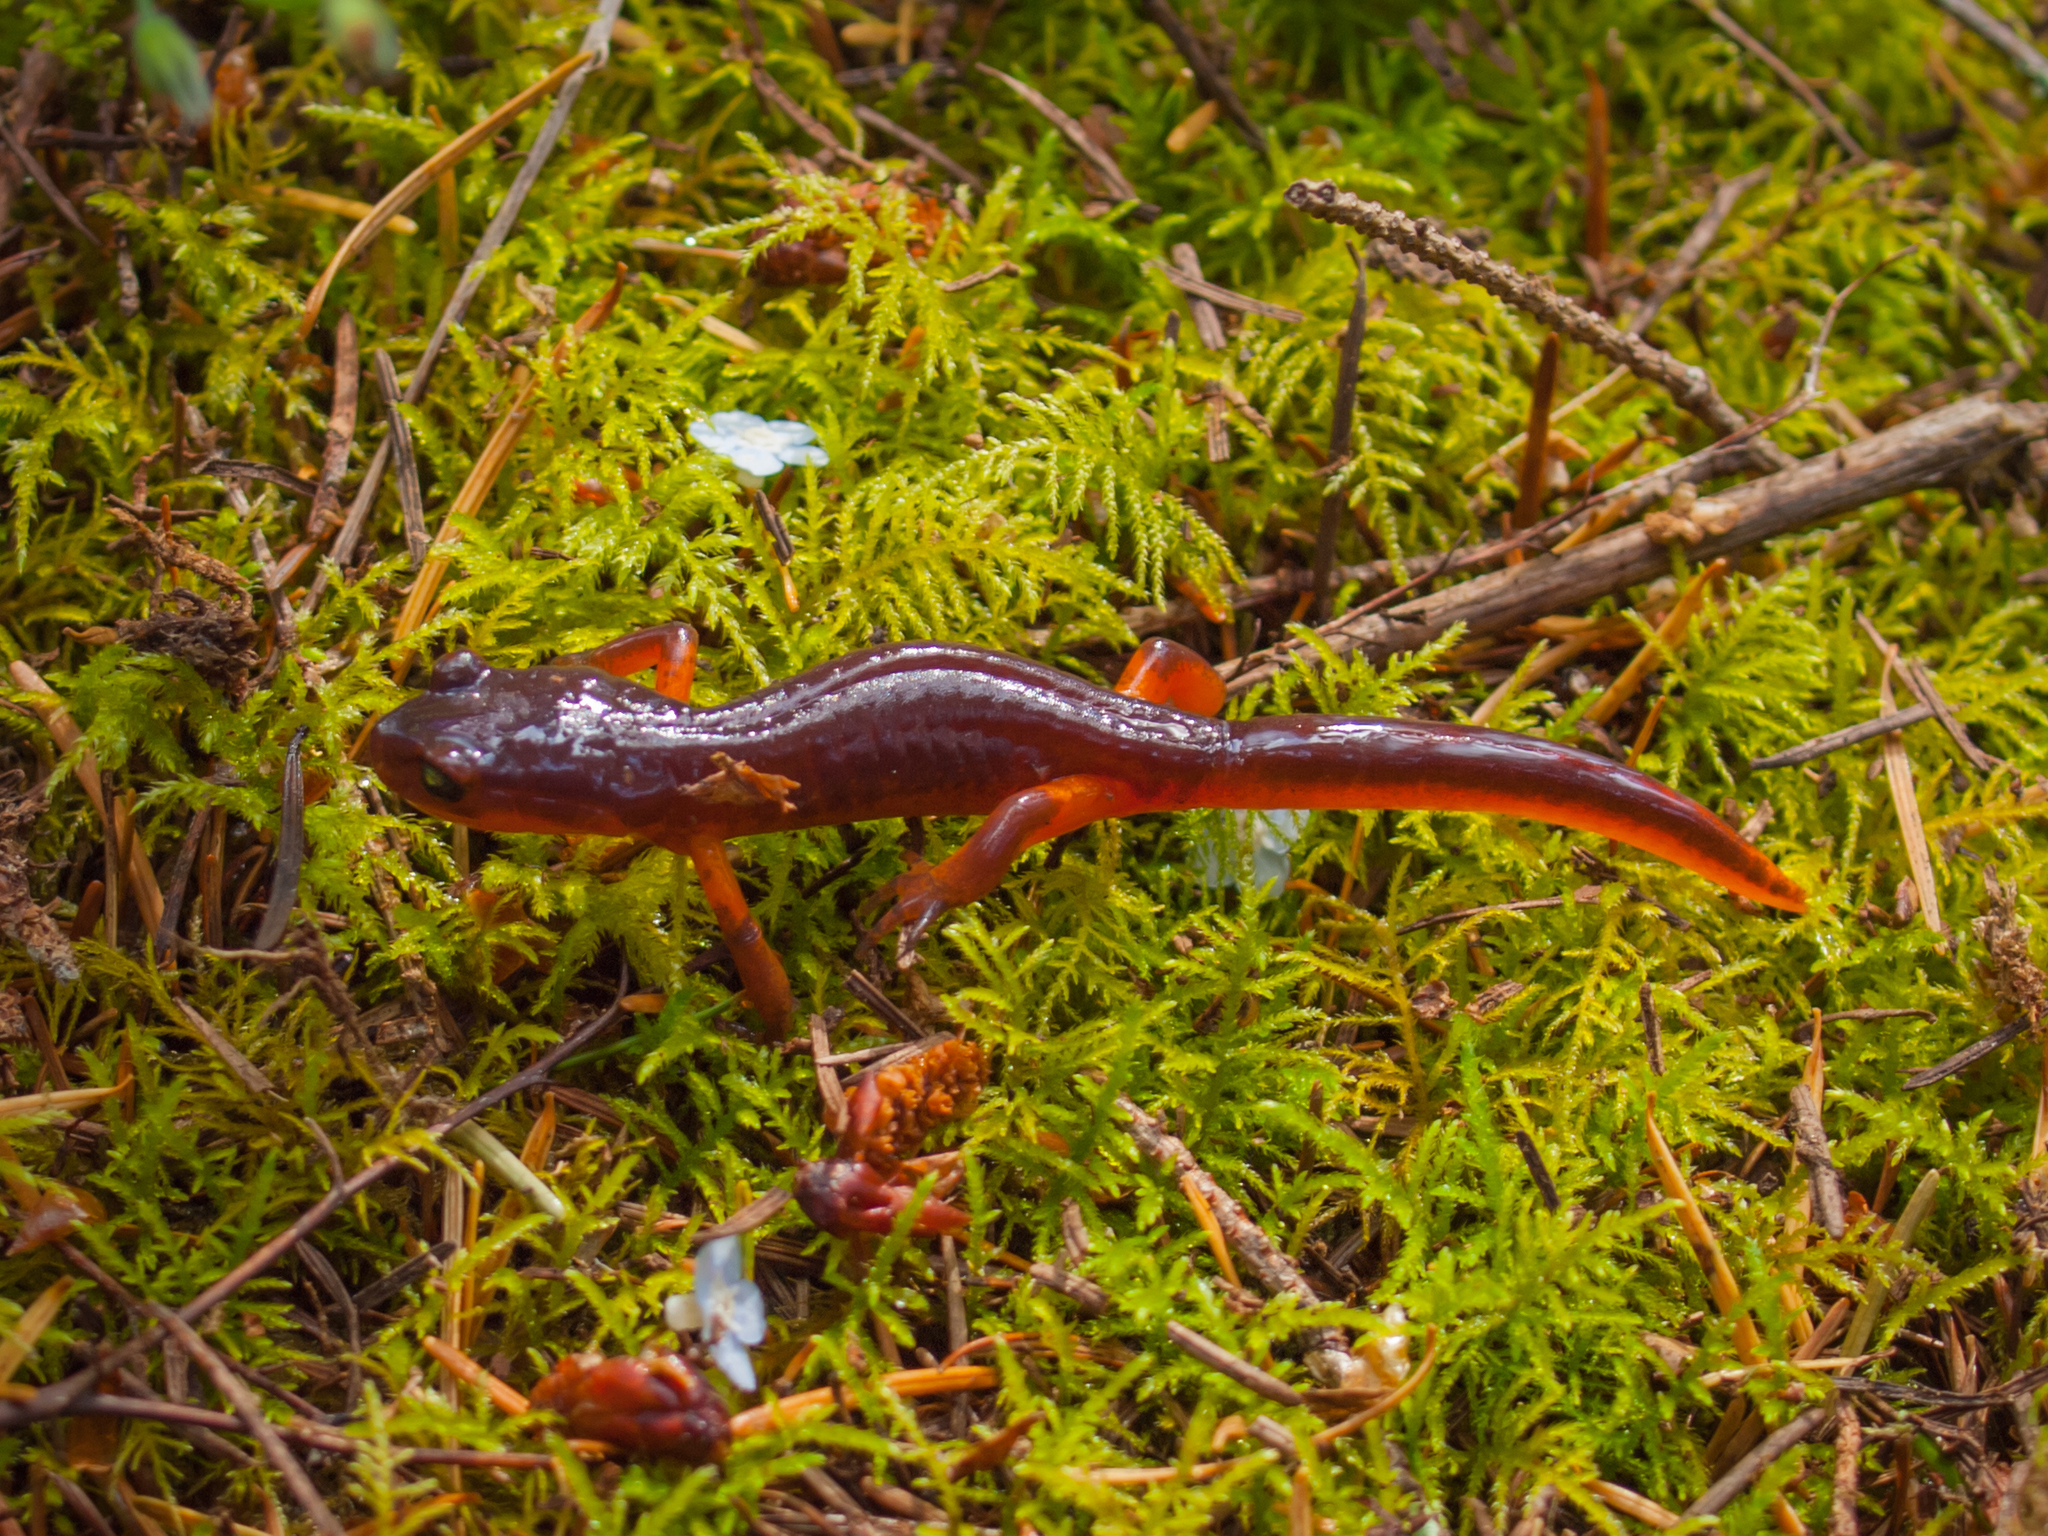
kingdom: Animalia
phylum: Chordata
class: Amphibia
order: Caudata
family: Plethodontidae
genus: Ensatina
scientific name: Ensatina eschscholtzii
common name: Ensatina
